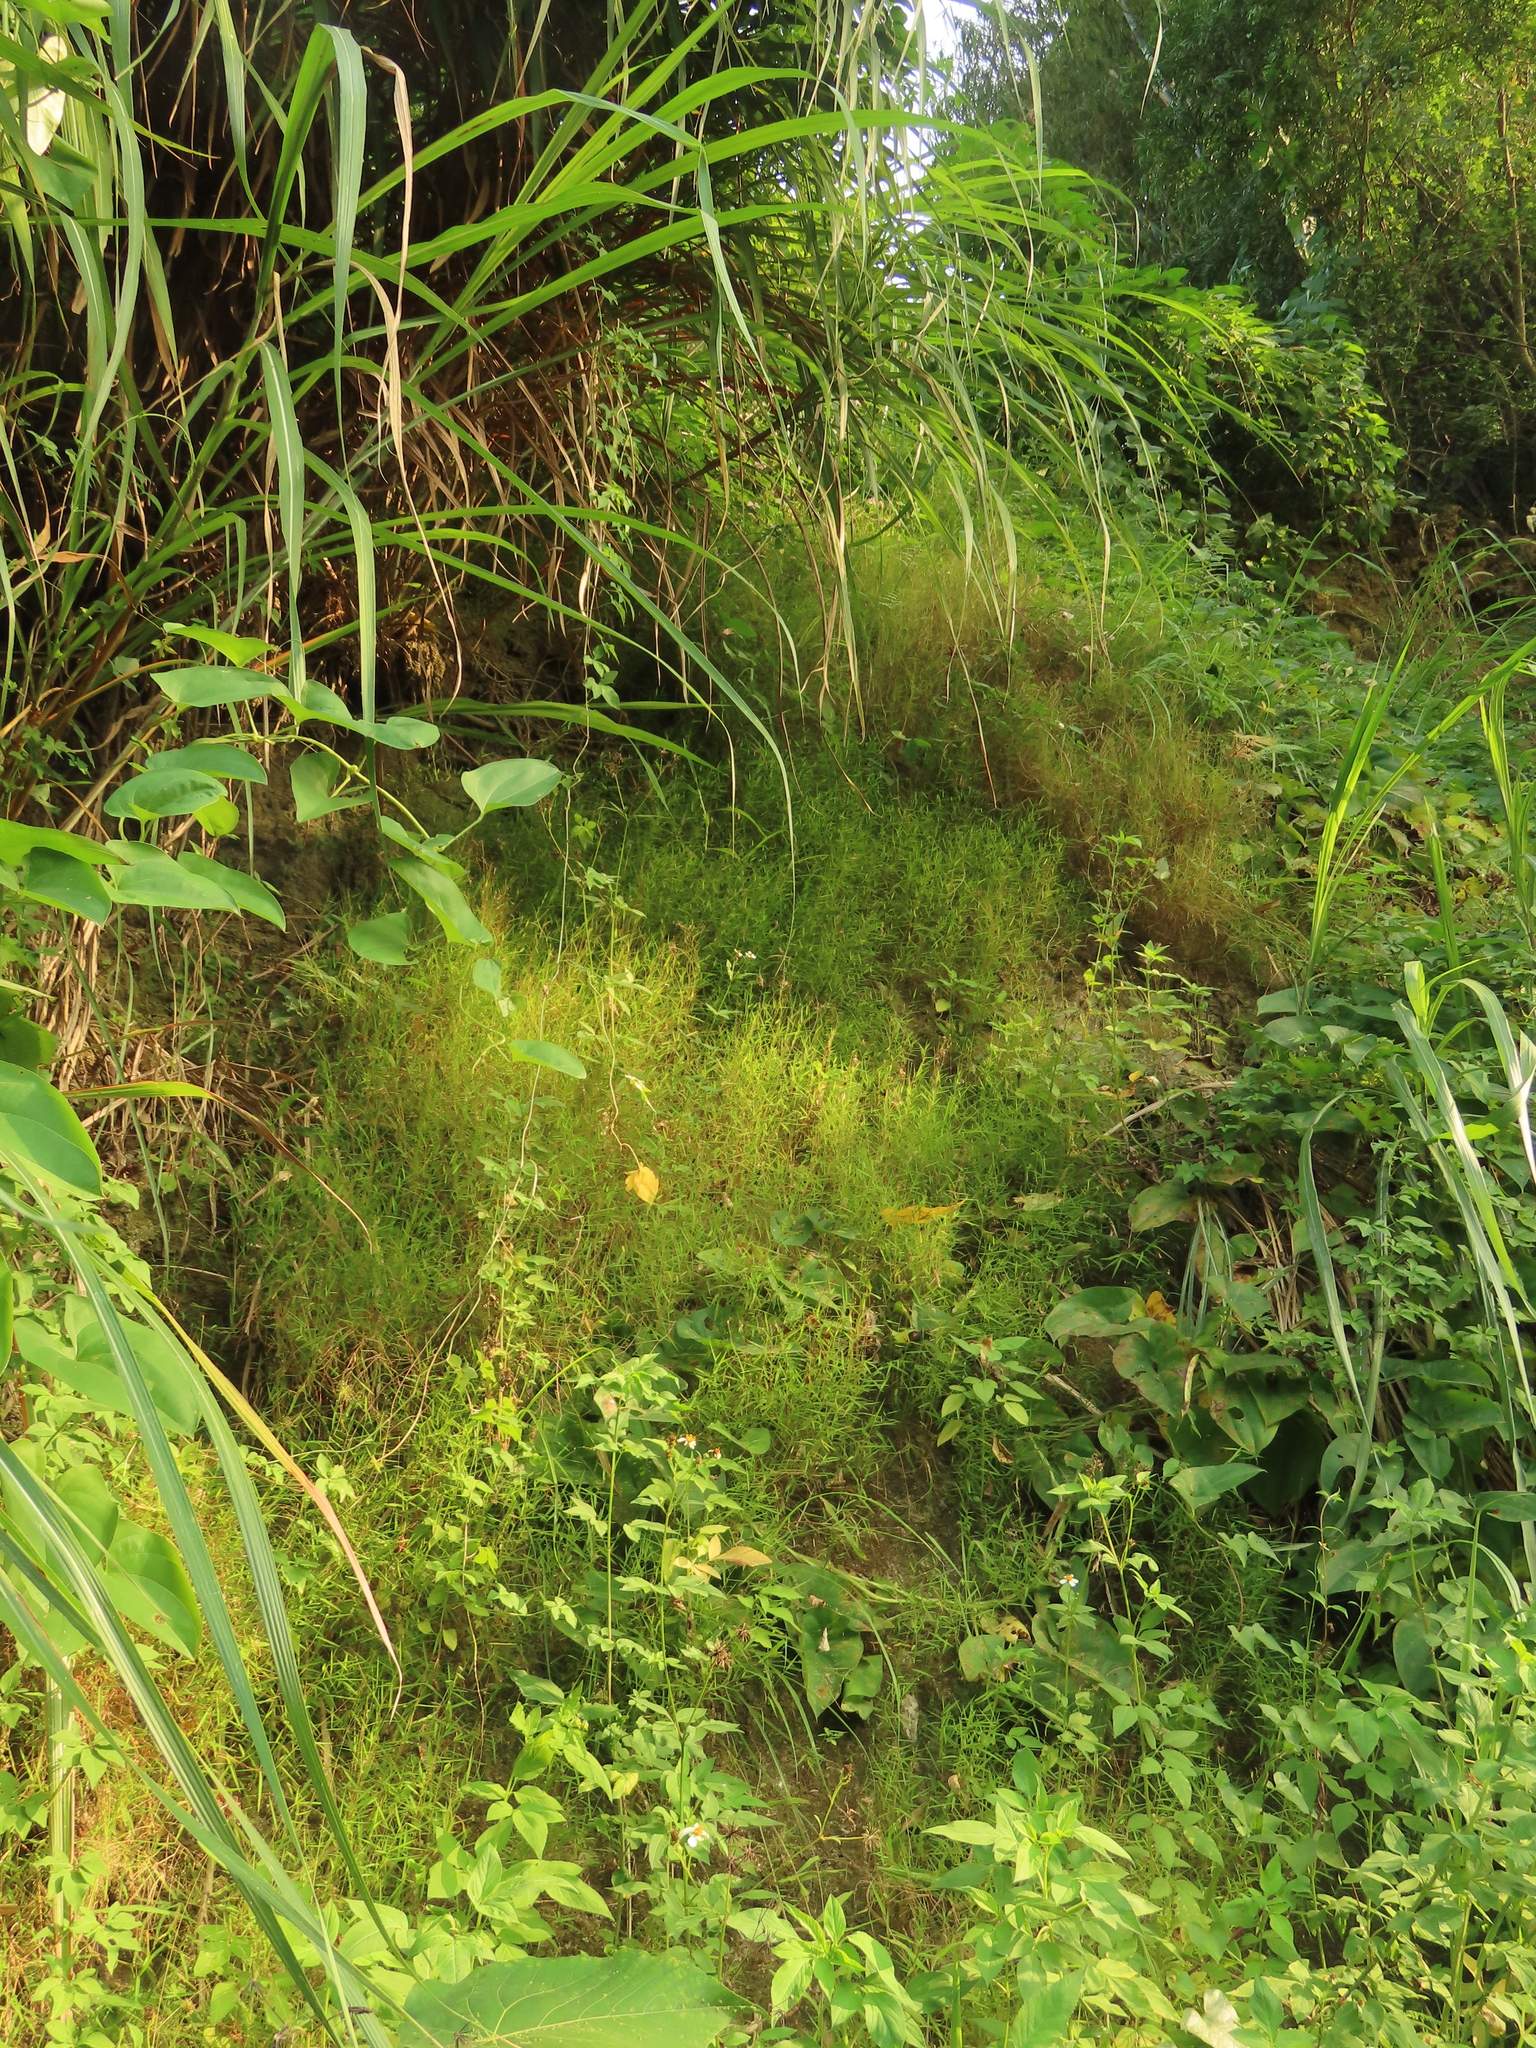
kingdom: Plantae
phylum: Tracheophyta
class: Liliopsida
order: Poales
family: Poaceae
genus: Pogonatherum
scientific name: Pogonatherum crinitum
